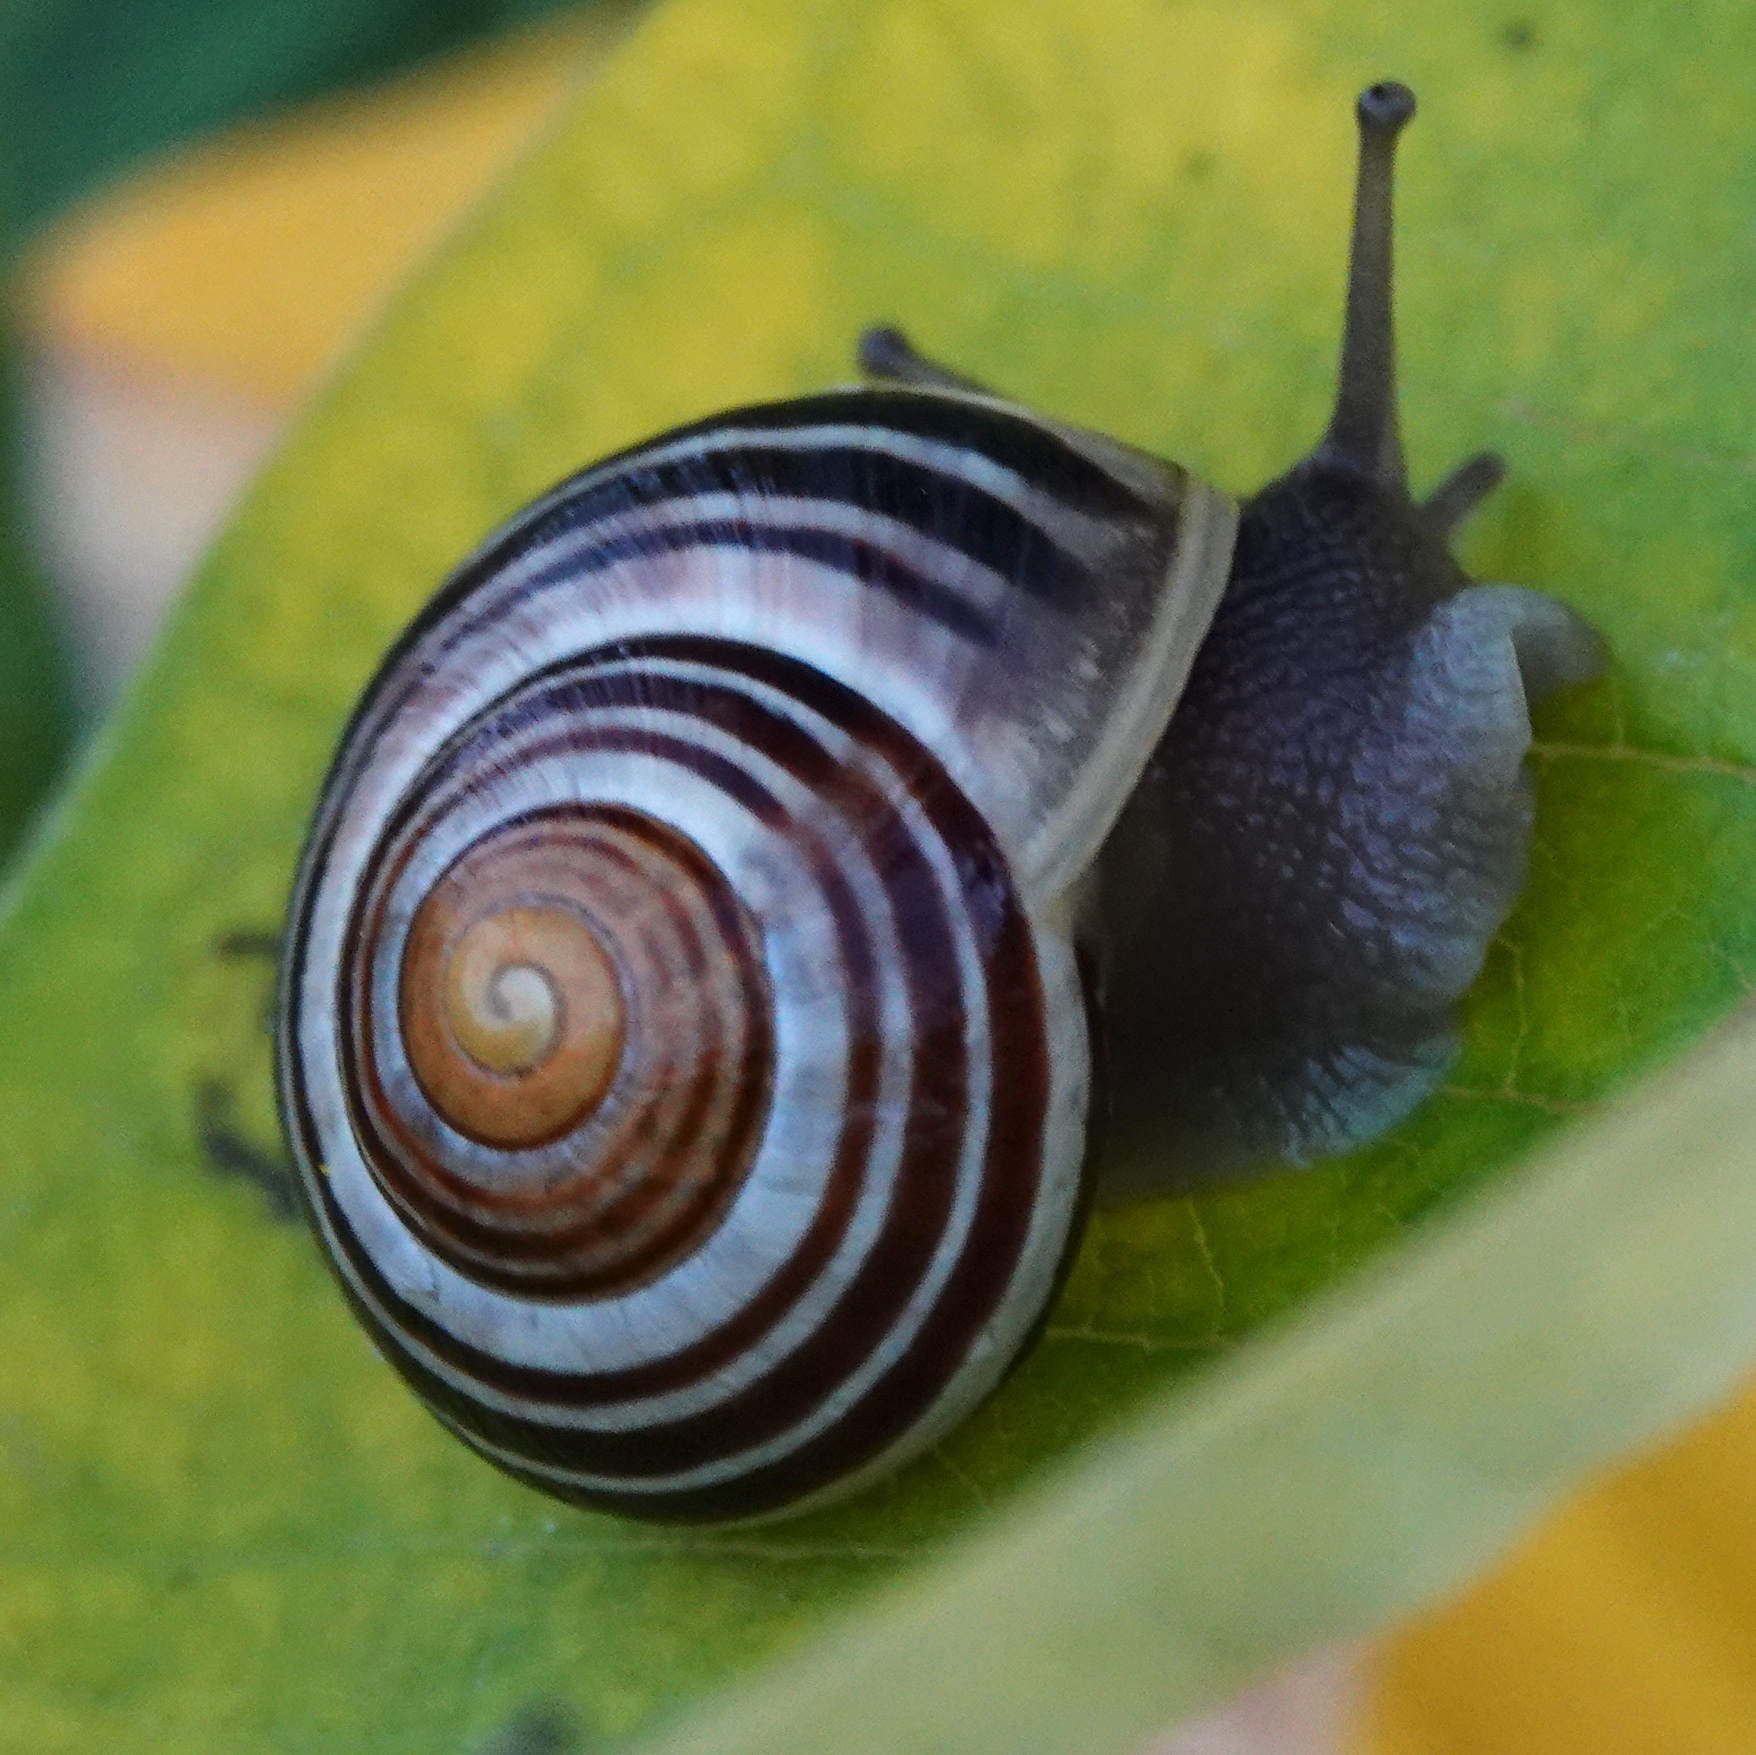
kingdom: Animalia
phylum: Mollusca
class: Gastropoda
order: Stylommatophora
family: Helicidae
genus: Cepaea
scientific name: Cepaea
